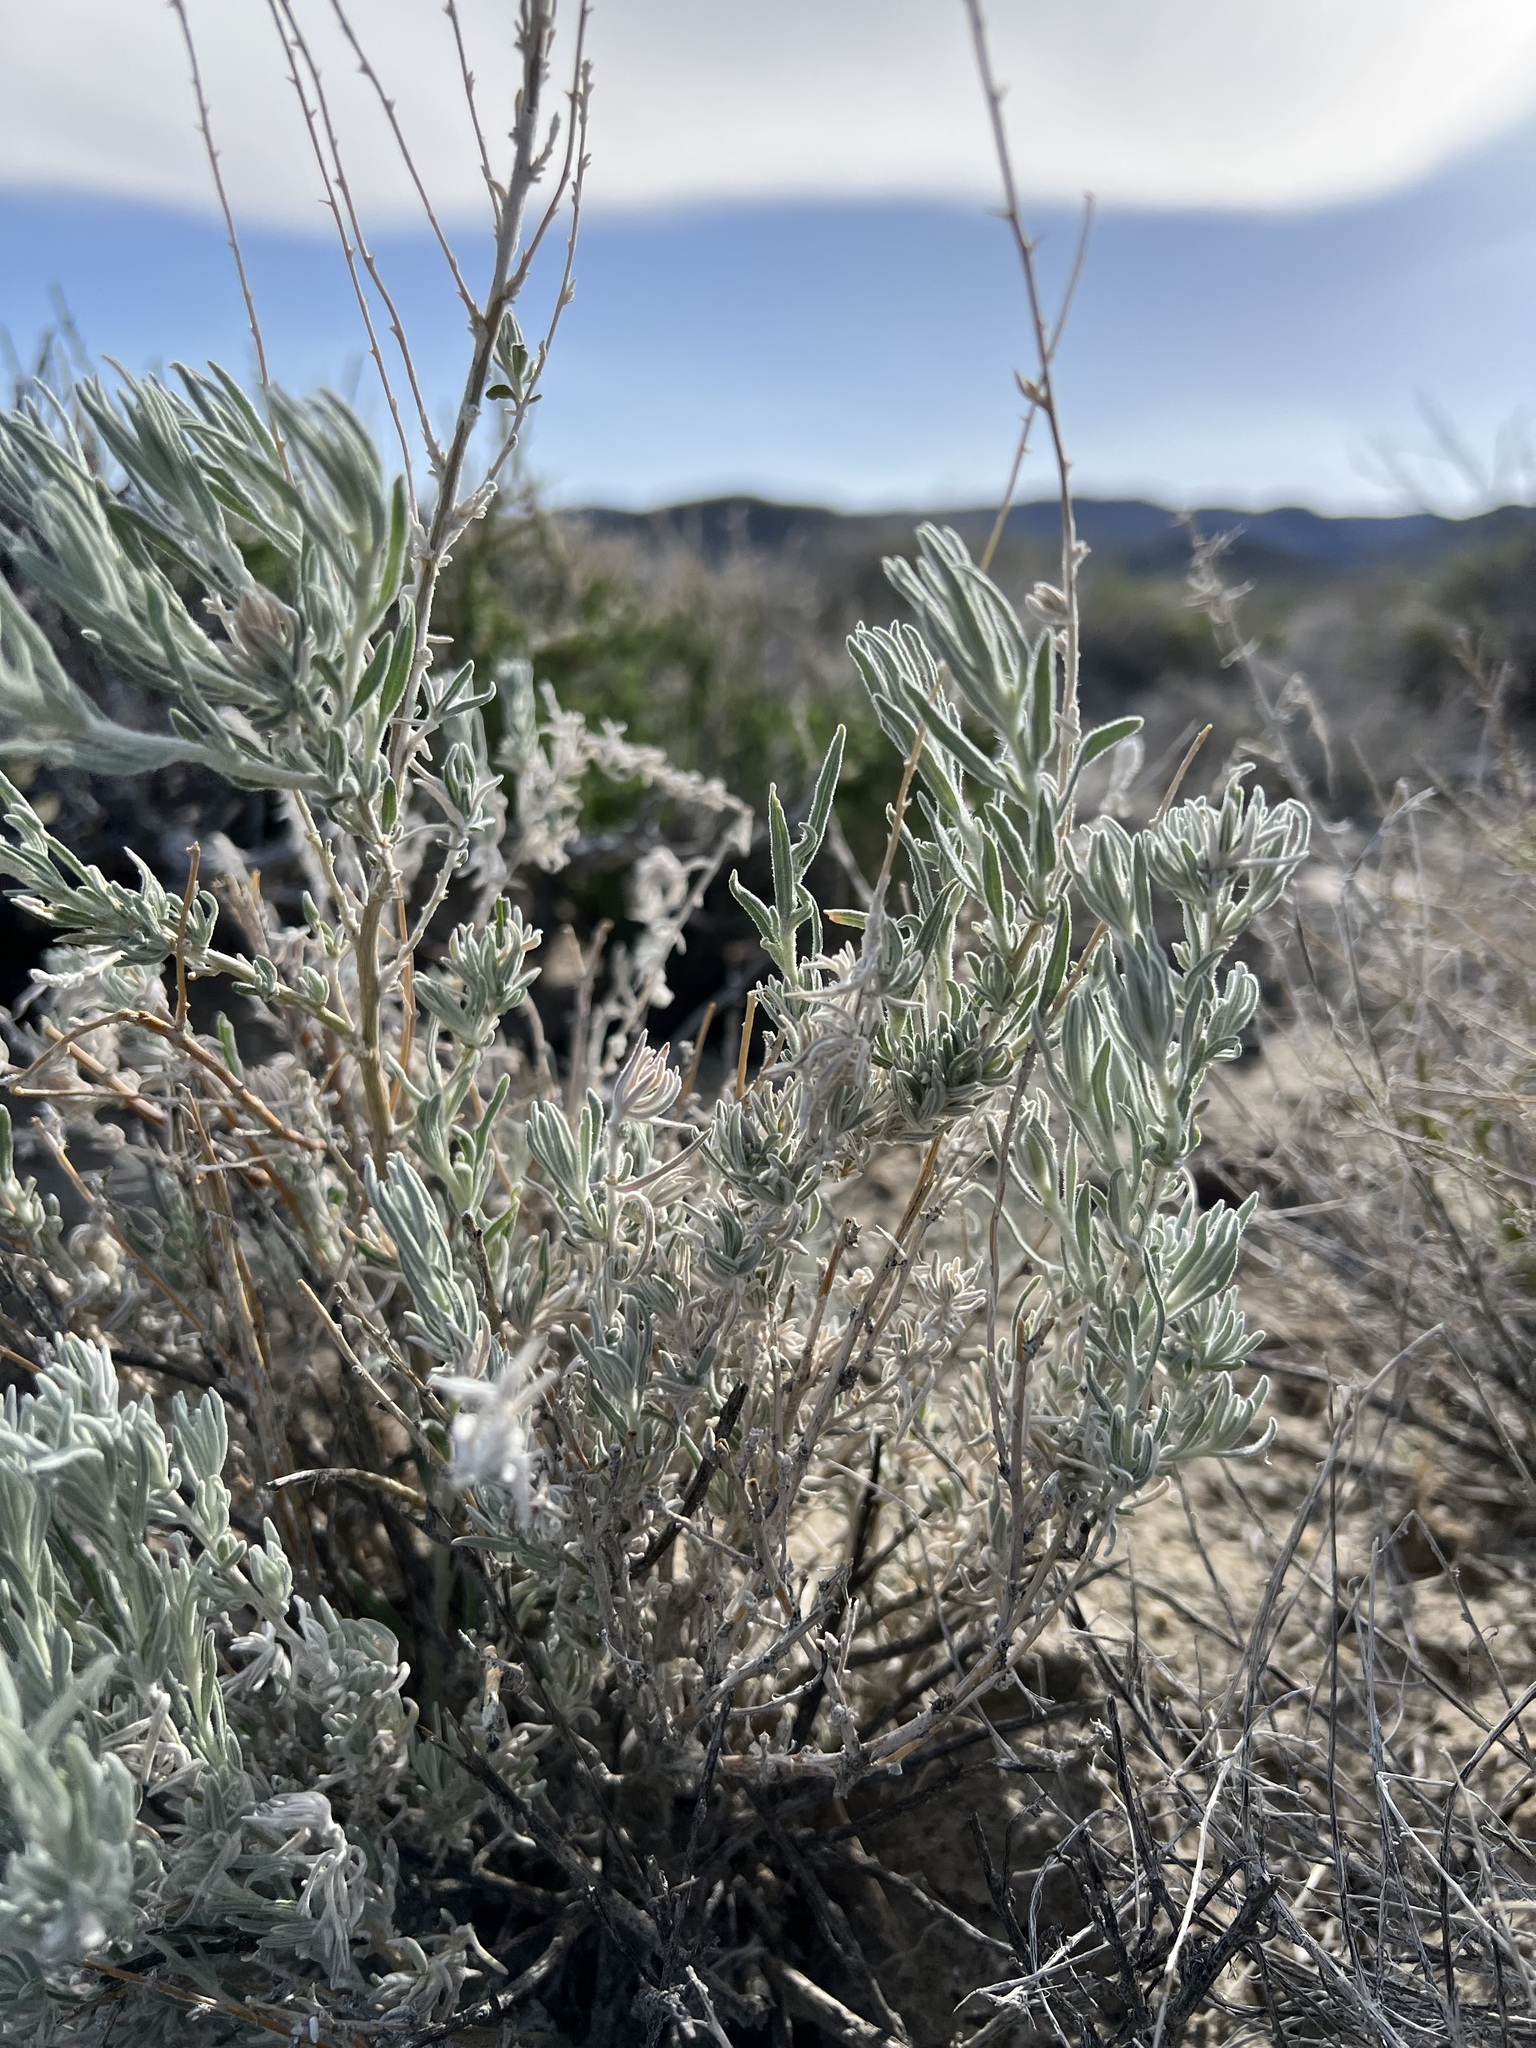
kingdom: Plantae
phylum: Tracheophyta
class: Magnoliopsida
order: Caryophyllales
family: Amaranthaceae
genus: Krascheninnikovia
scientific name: Krascheninnikovia lanata
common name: Winterfat
